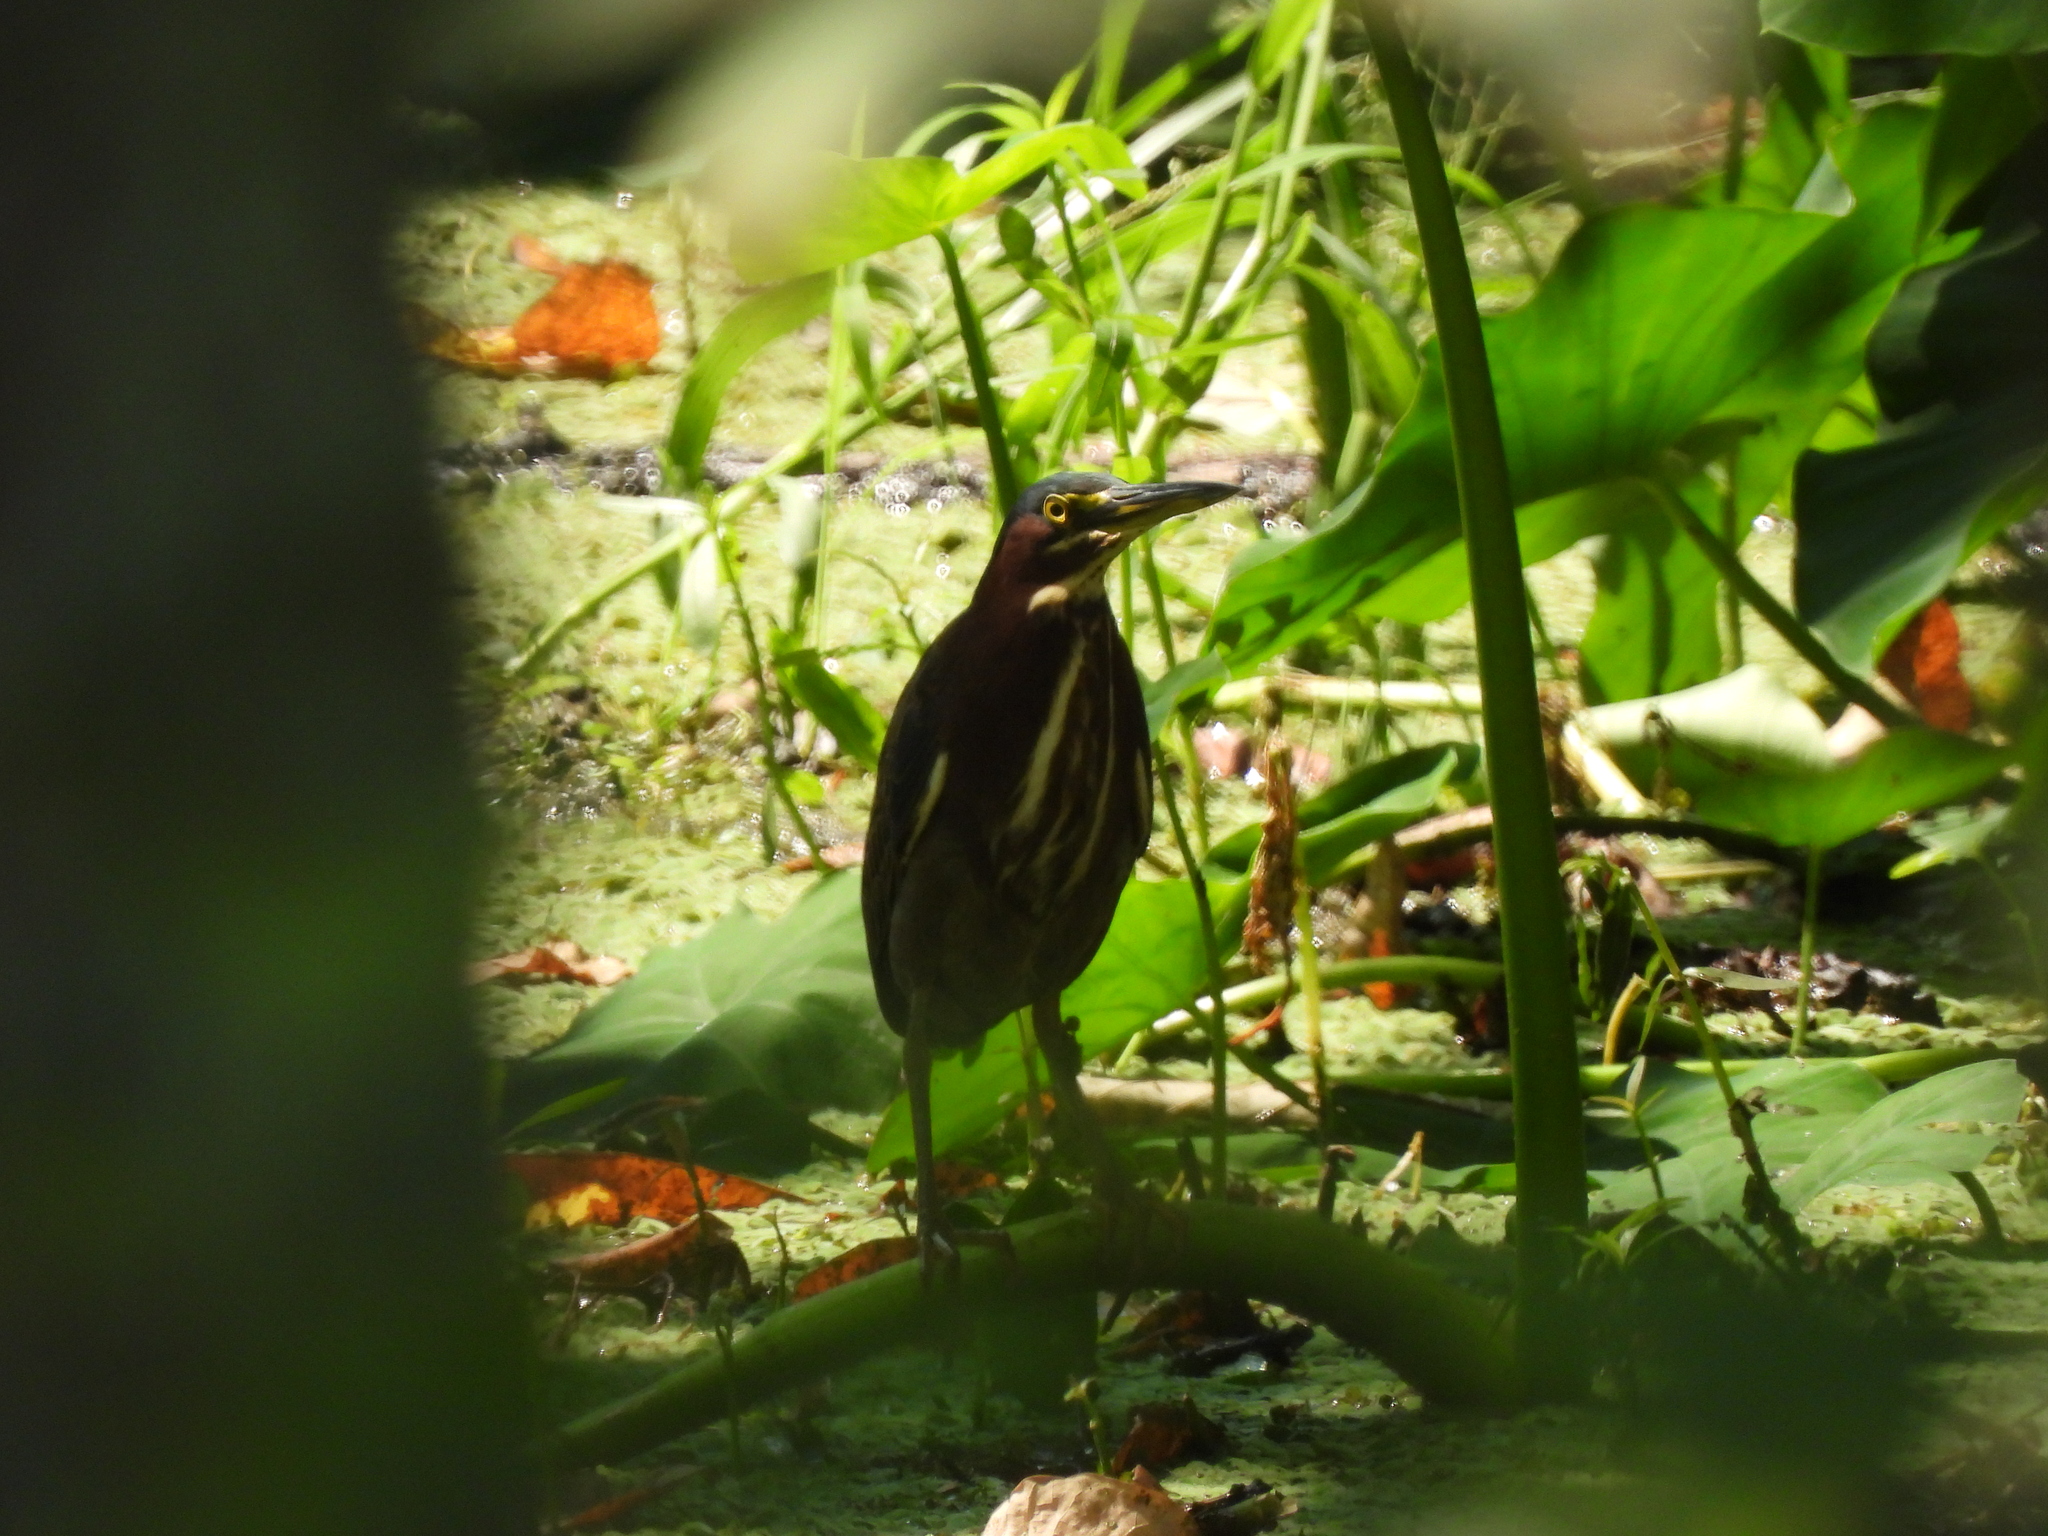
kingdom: Animalia
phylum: Chordata
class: Aves
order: Pelecaniformes
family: Ardeidae
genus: Butorides
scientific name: Butorides virescens
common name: Green heron
